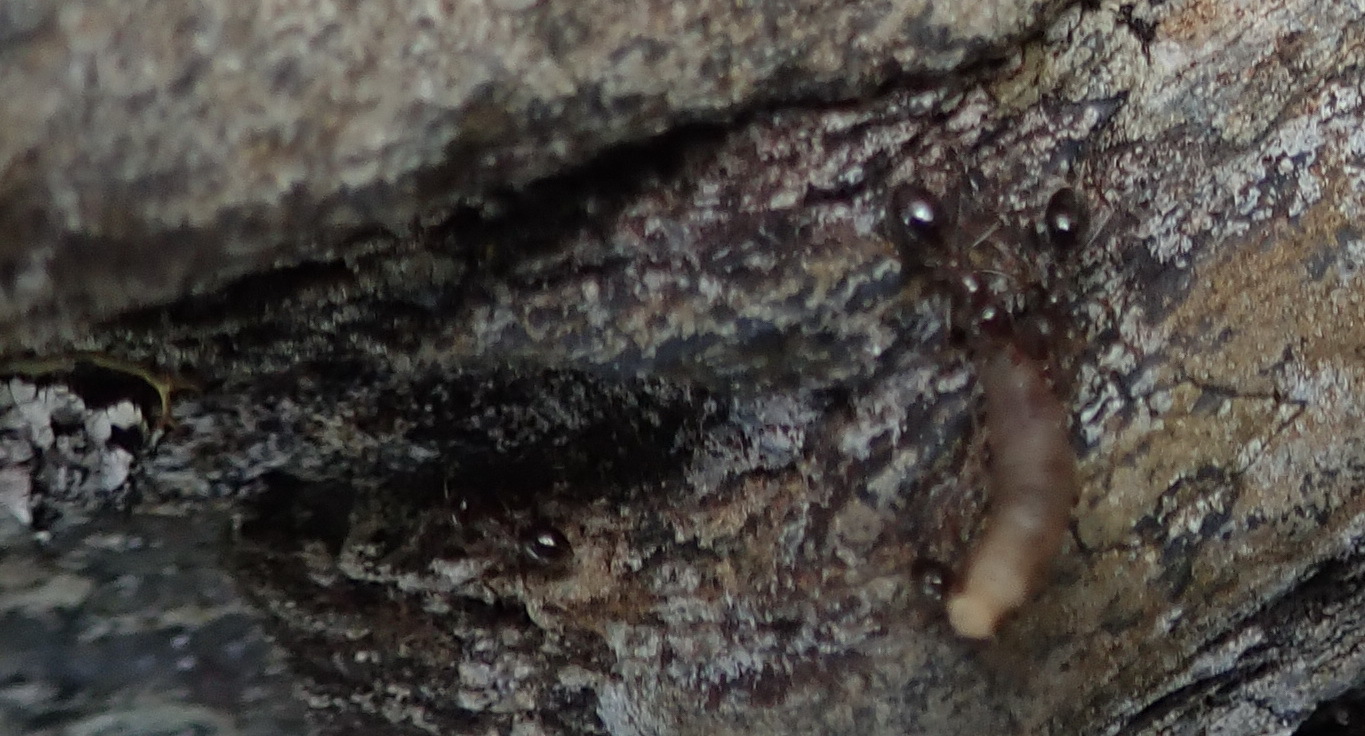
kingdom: Animalia
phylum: Arthropoda
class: Insecta
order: Hymenoptera
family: Formicidae
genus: Anoplolepis
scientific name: Anoplolepis steingroeveri
